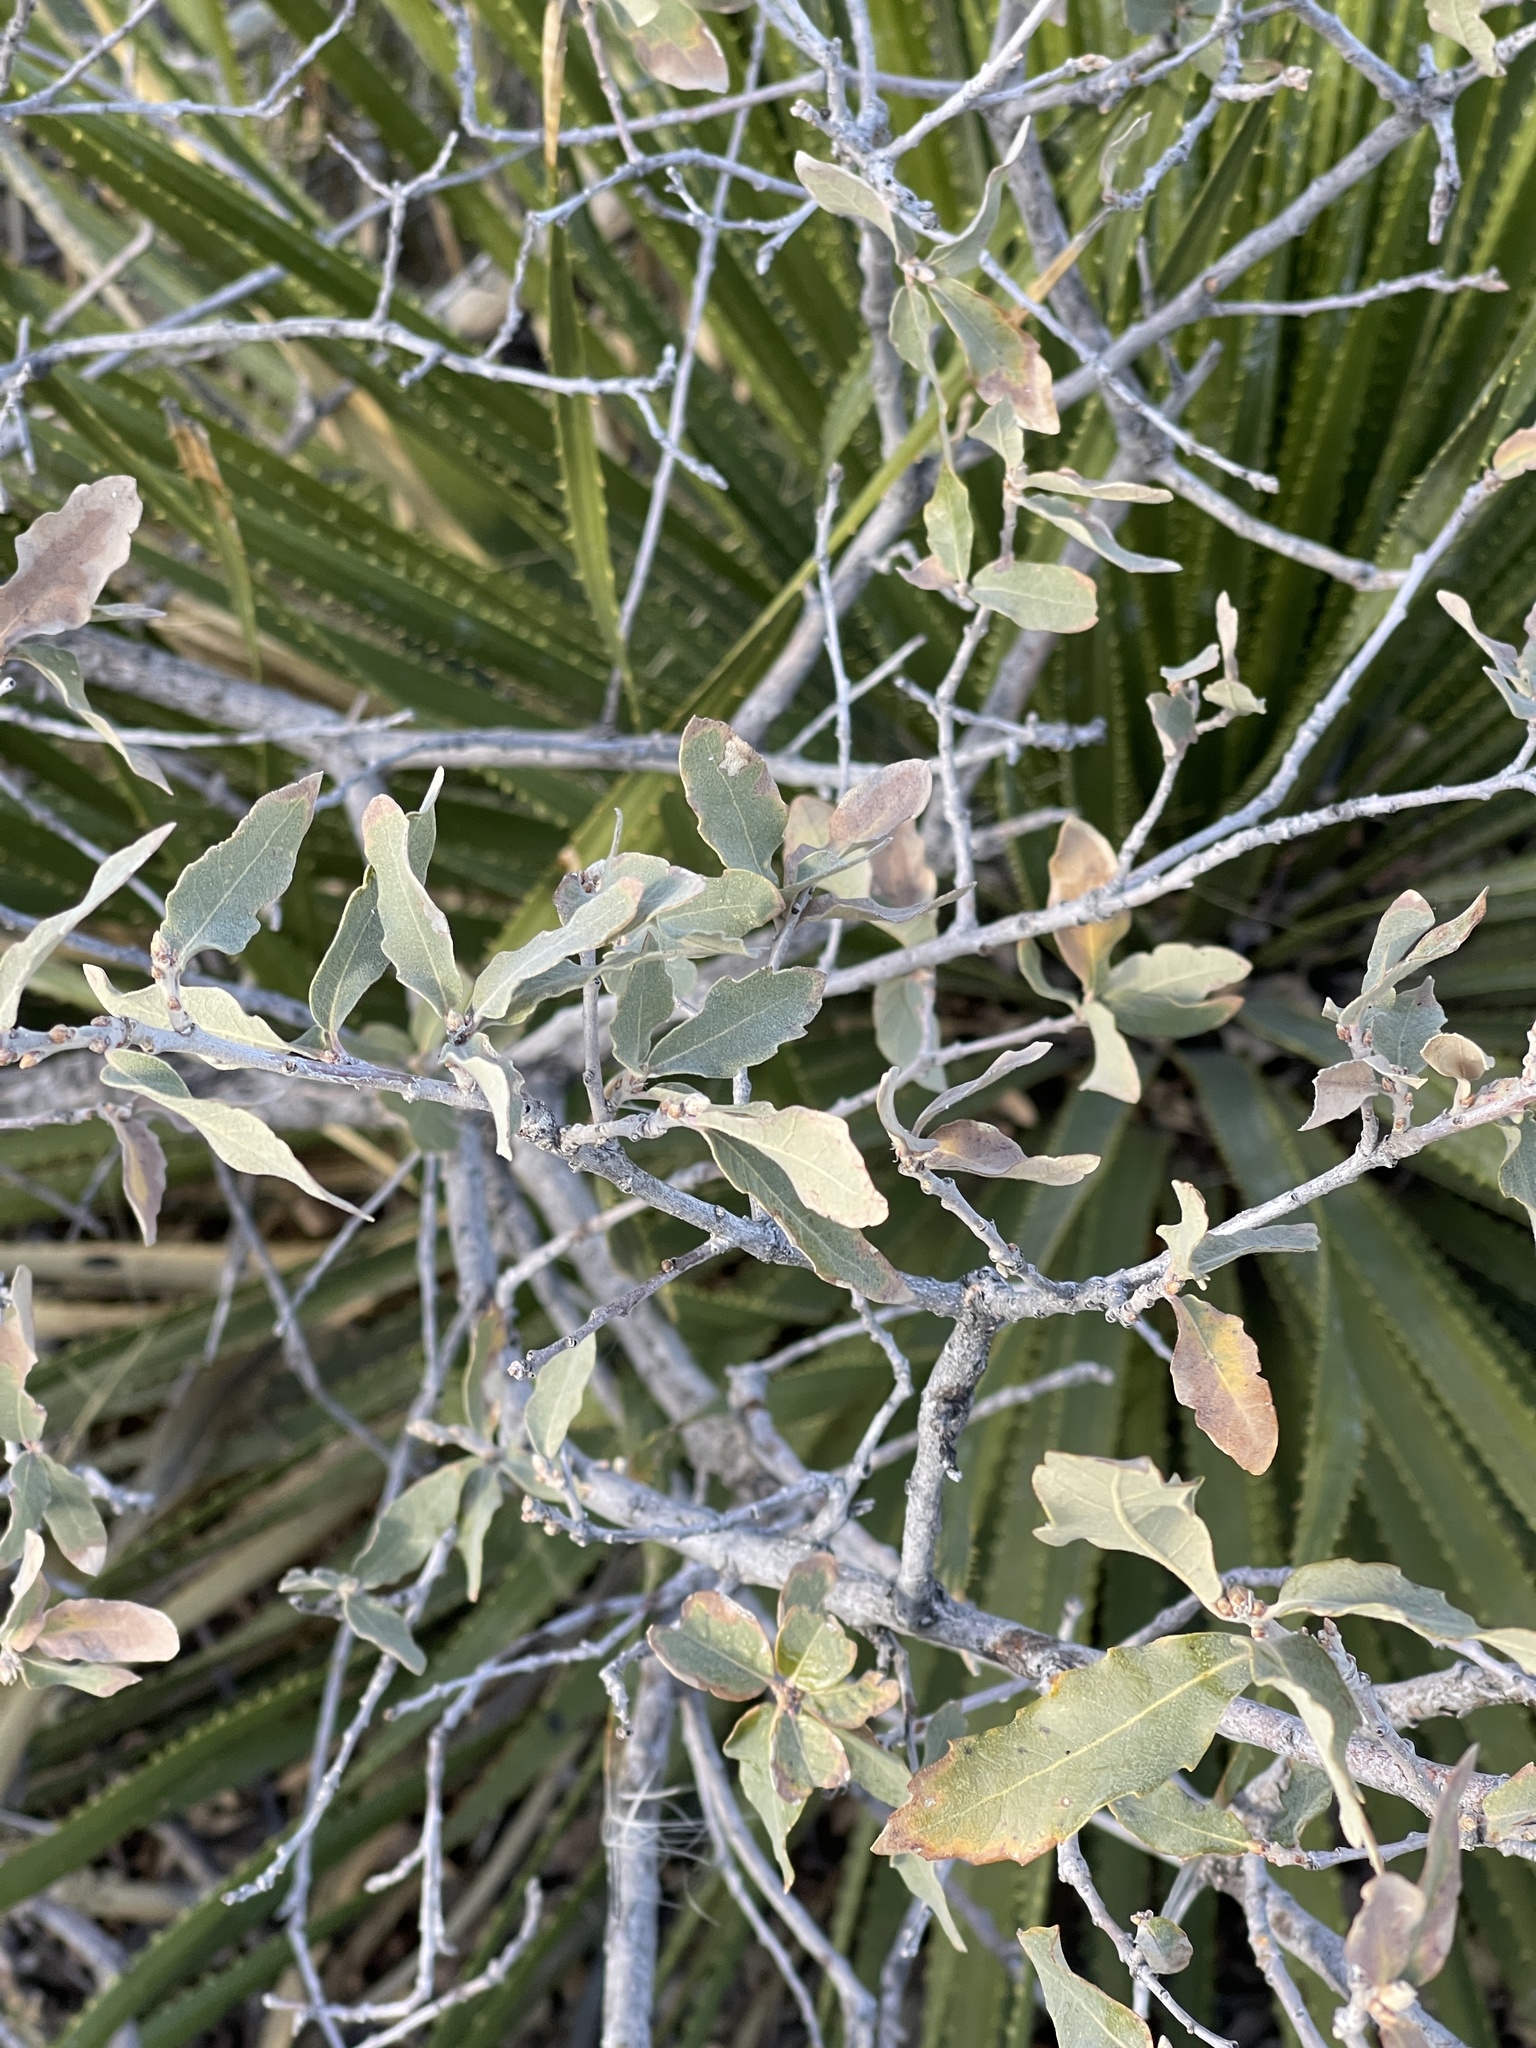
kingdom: Plantae
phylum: Tracheophyta
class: Magnoliopsida
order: Fagales
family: Fagaceae
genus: Quercus
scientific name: Quercus grisea
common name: Gray oak
